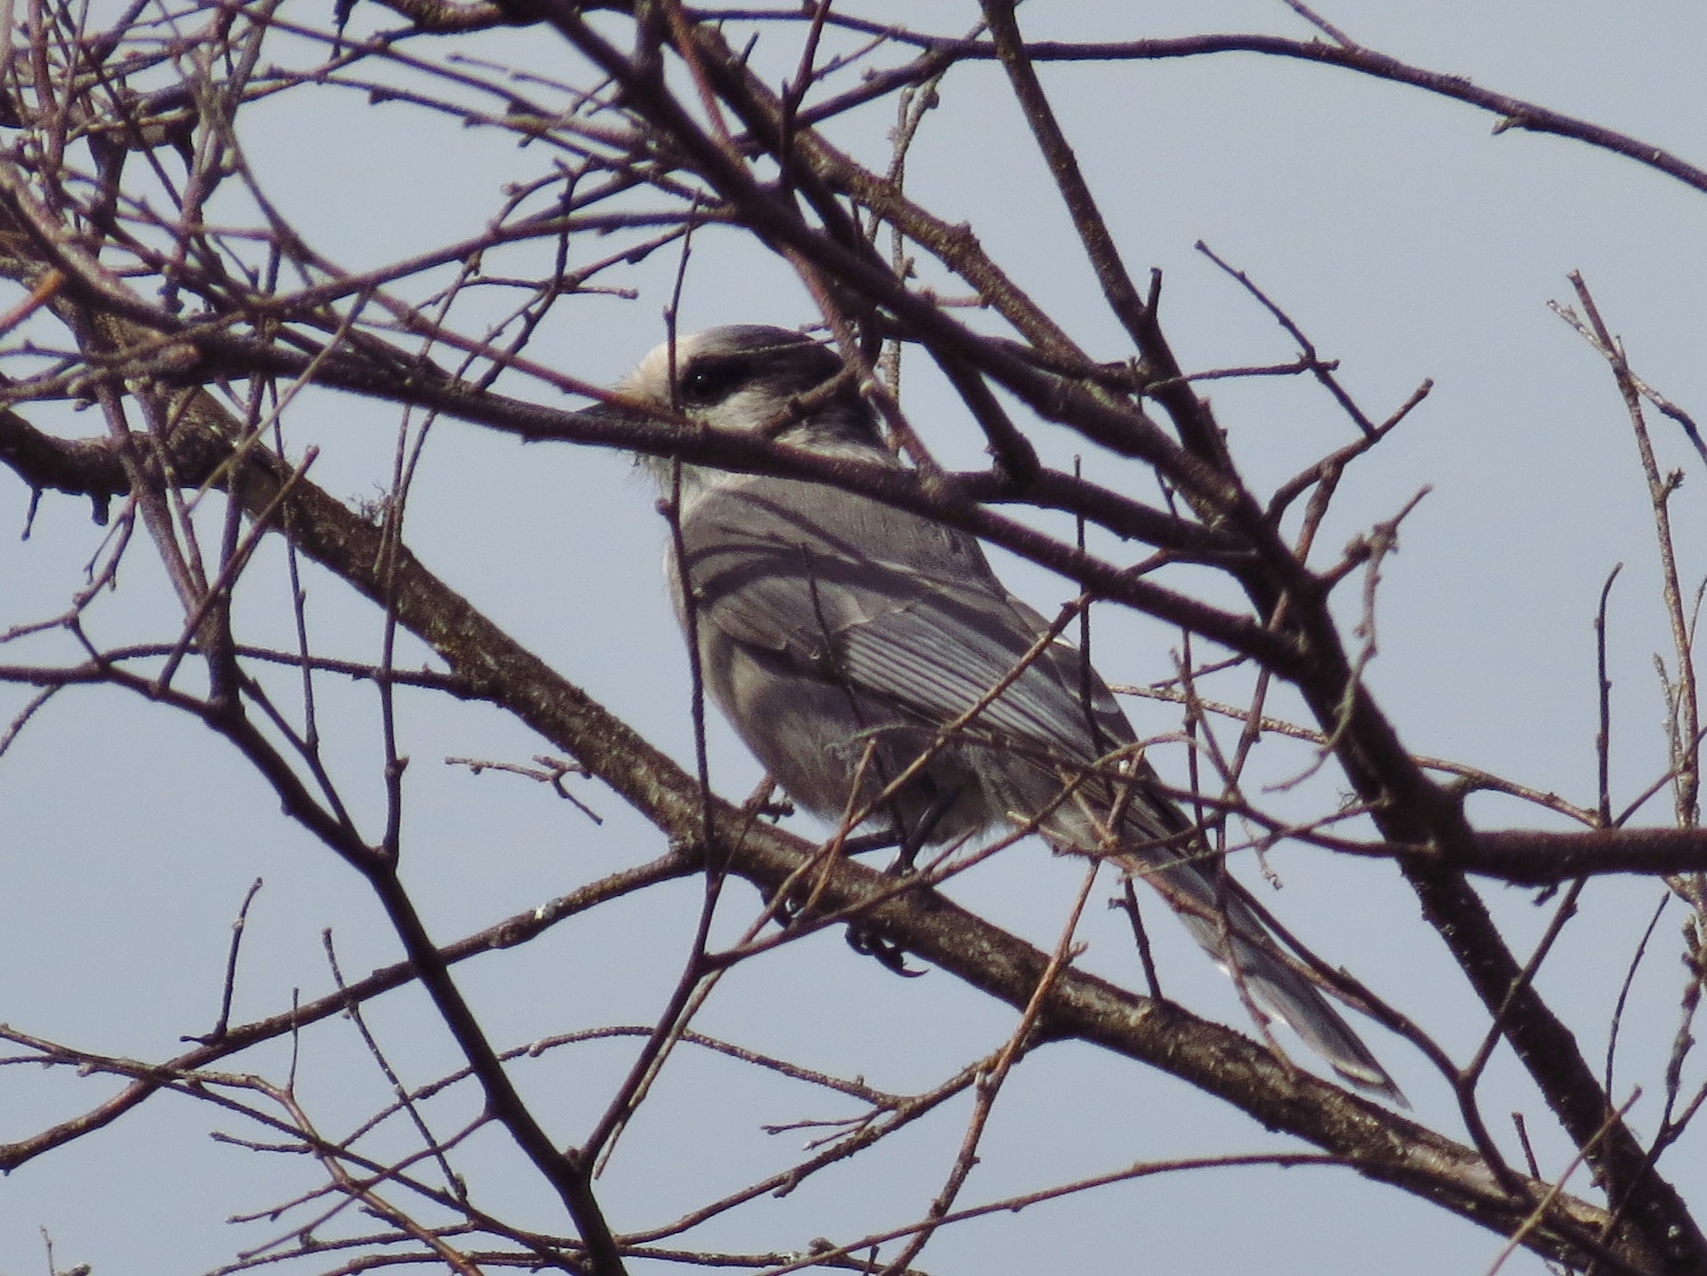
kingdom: Animalia
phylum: Chordata
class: Aves
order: Passeriformes
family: Corvidae
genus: Perisoreus
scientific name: Perisoreus canadensis
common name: Gray jay
